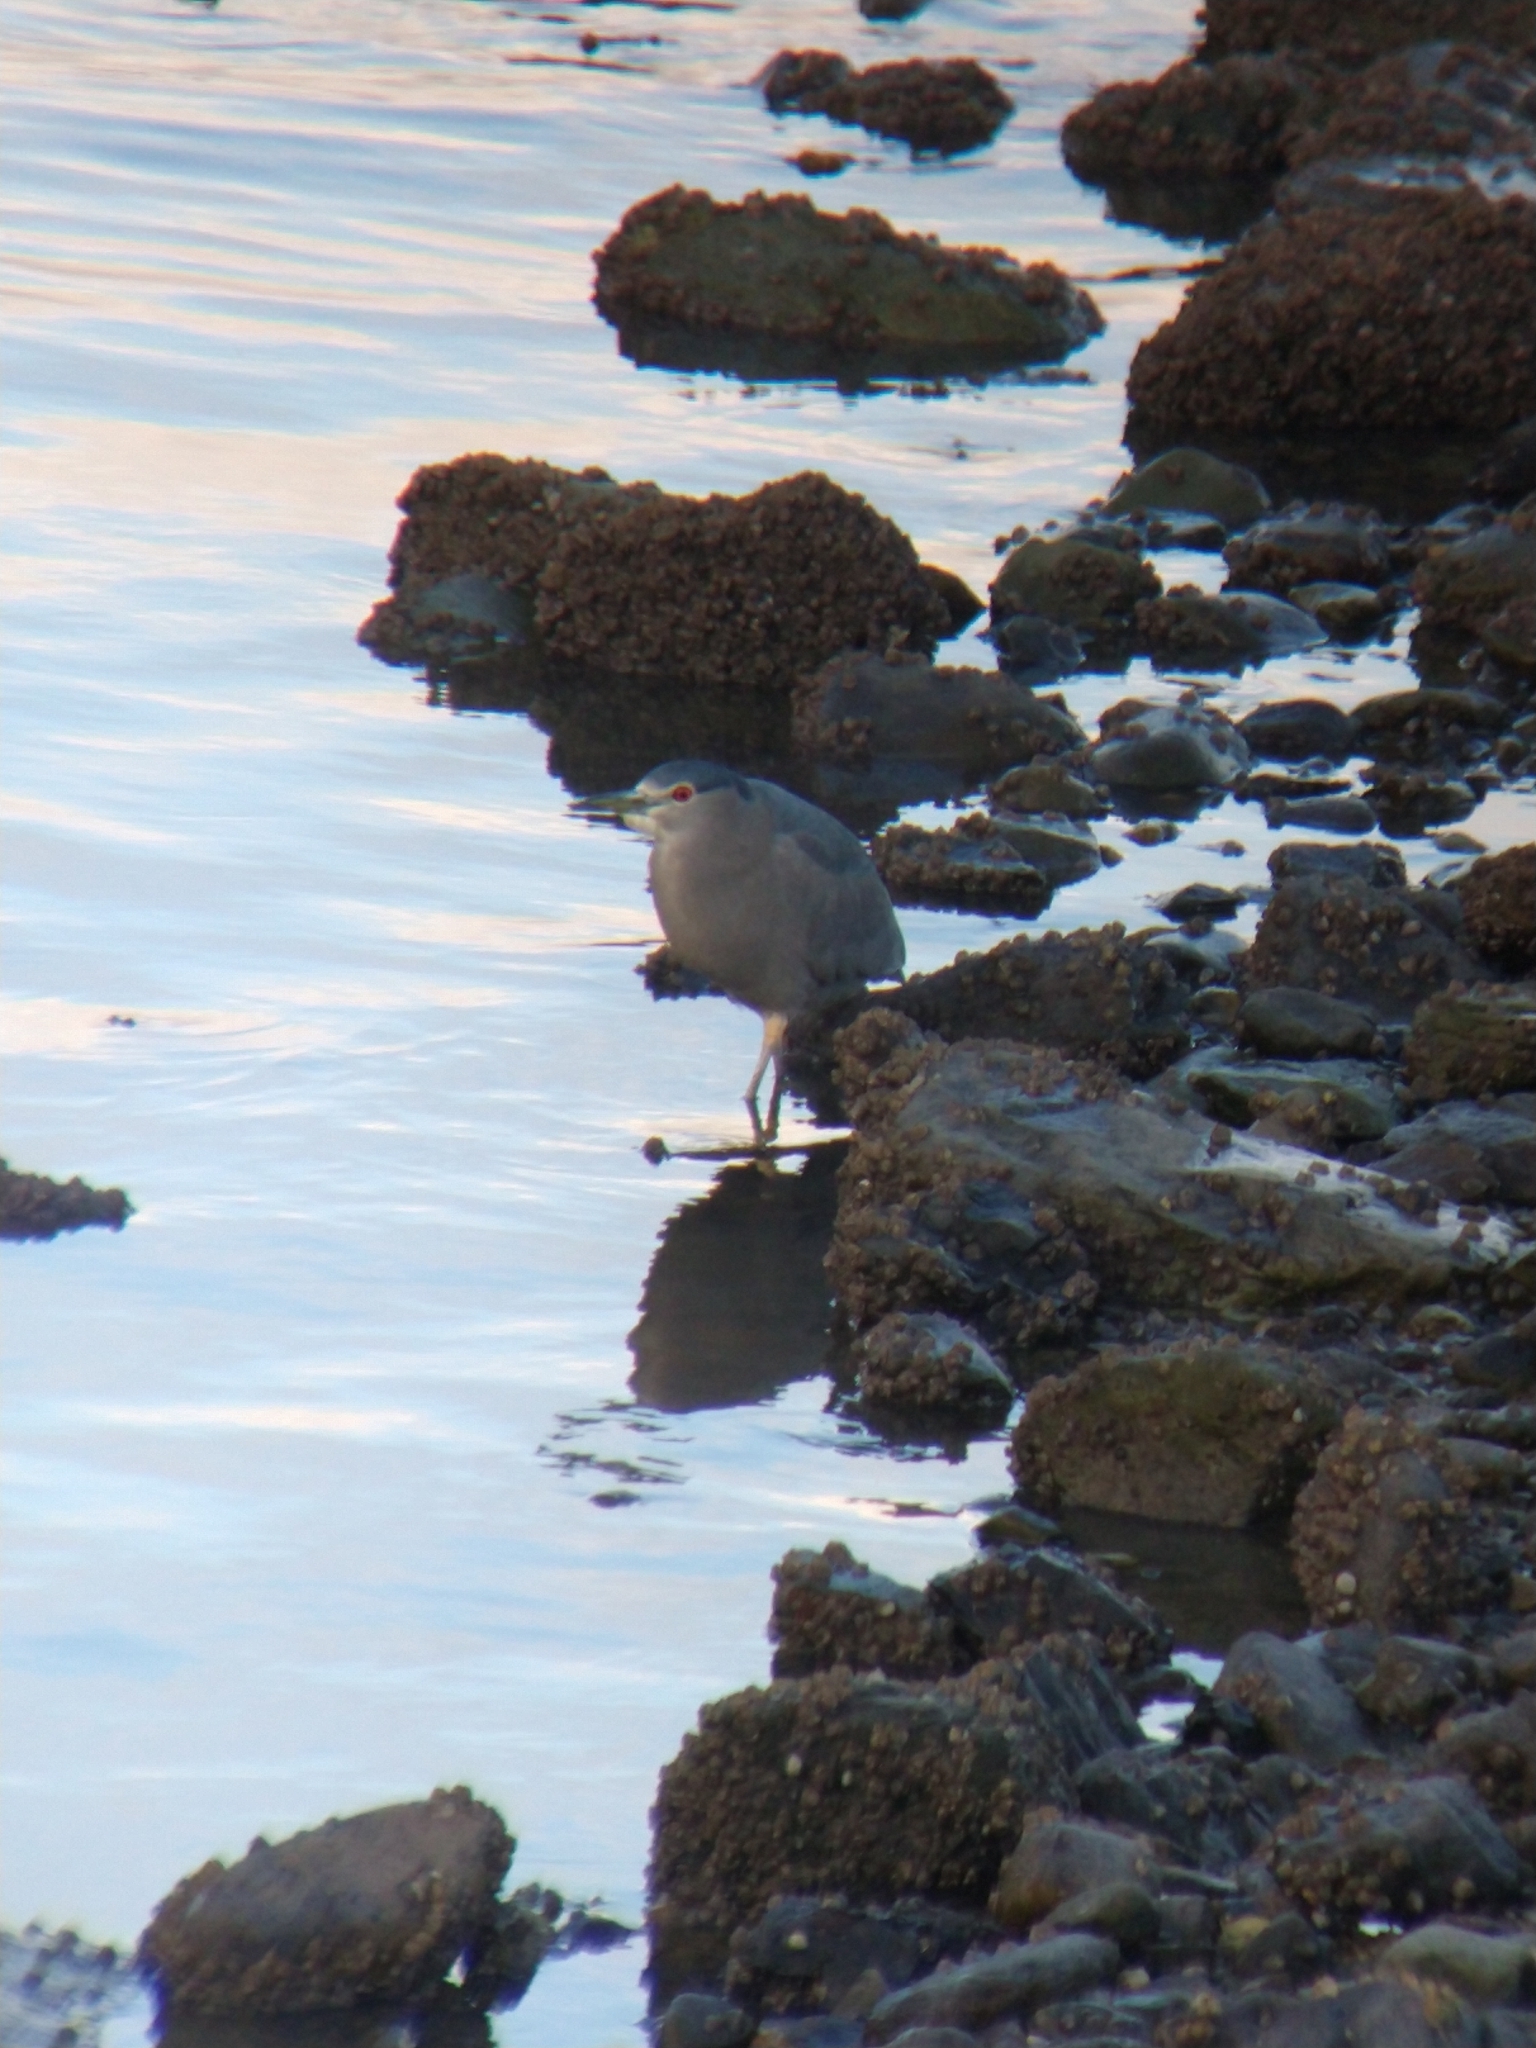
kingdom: Animalia
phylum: Chordata
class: Aves
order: Pelecaniformes
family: Ardeidae
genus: Nycticorax
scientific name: Nycticorax nycticorax
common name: Black-crowned night heron
